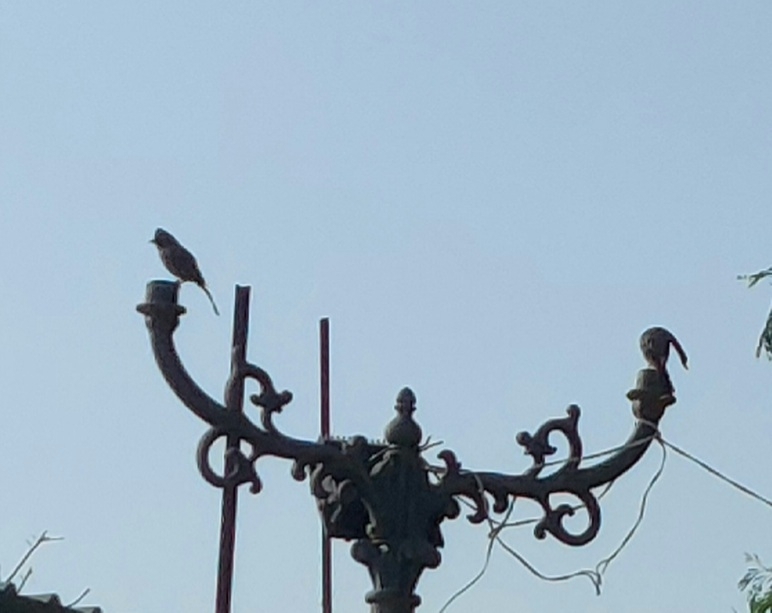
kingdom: Animalia
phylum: Chordata
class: Aves
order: Passeriformes
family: Pycnonotidae
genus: Pycnonotus
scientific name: Pycnonotus cafer
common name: Red-vented bulbul
